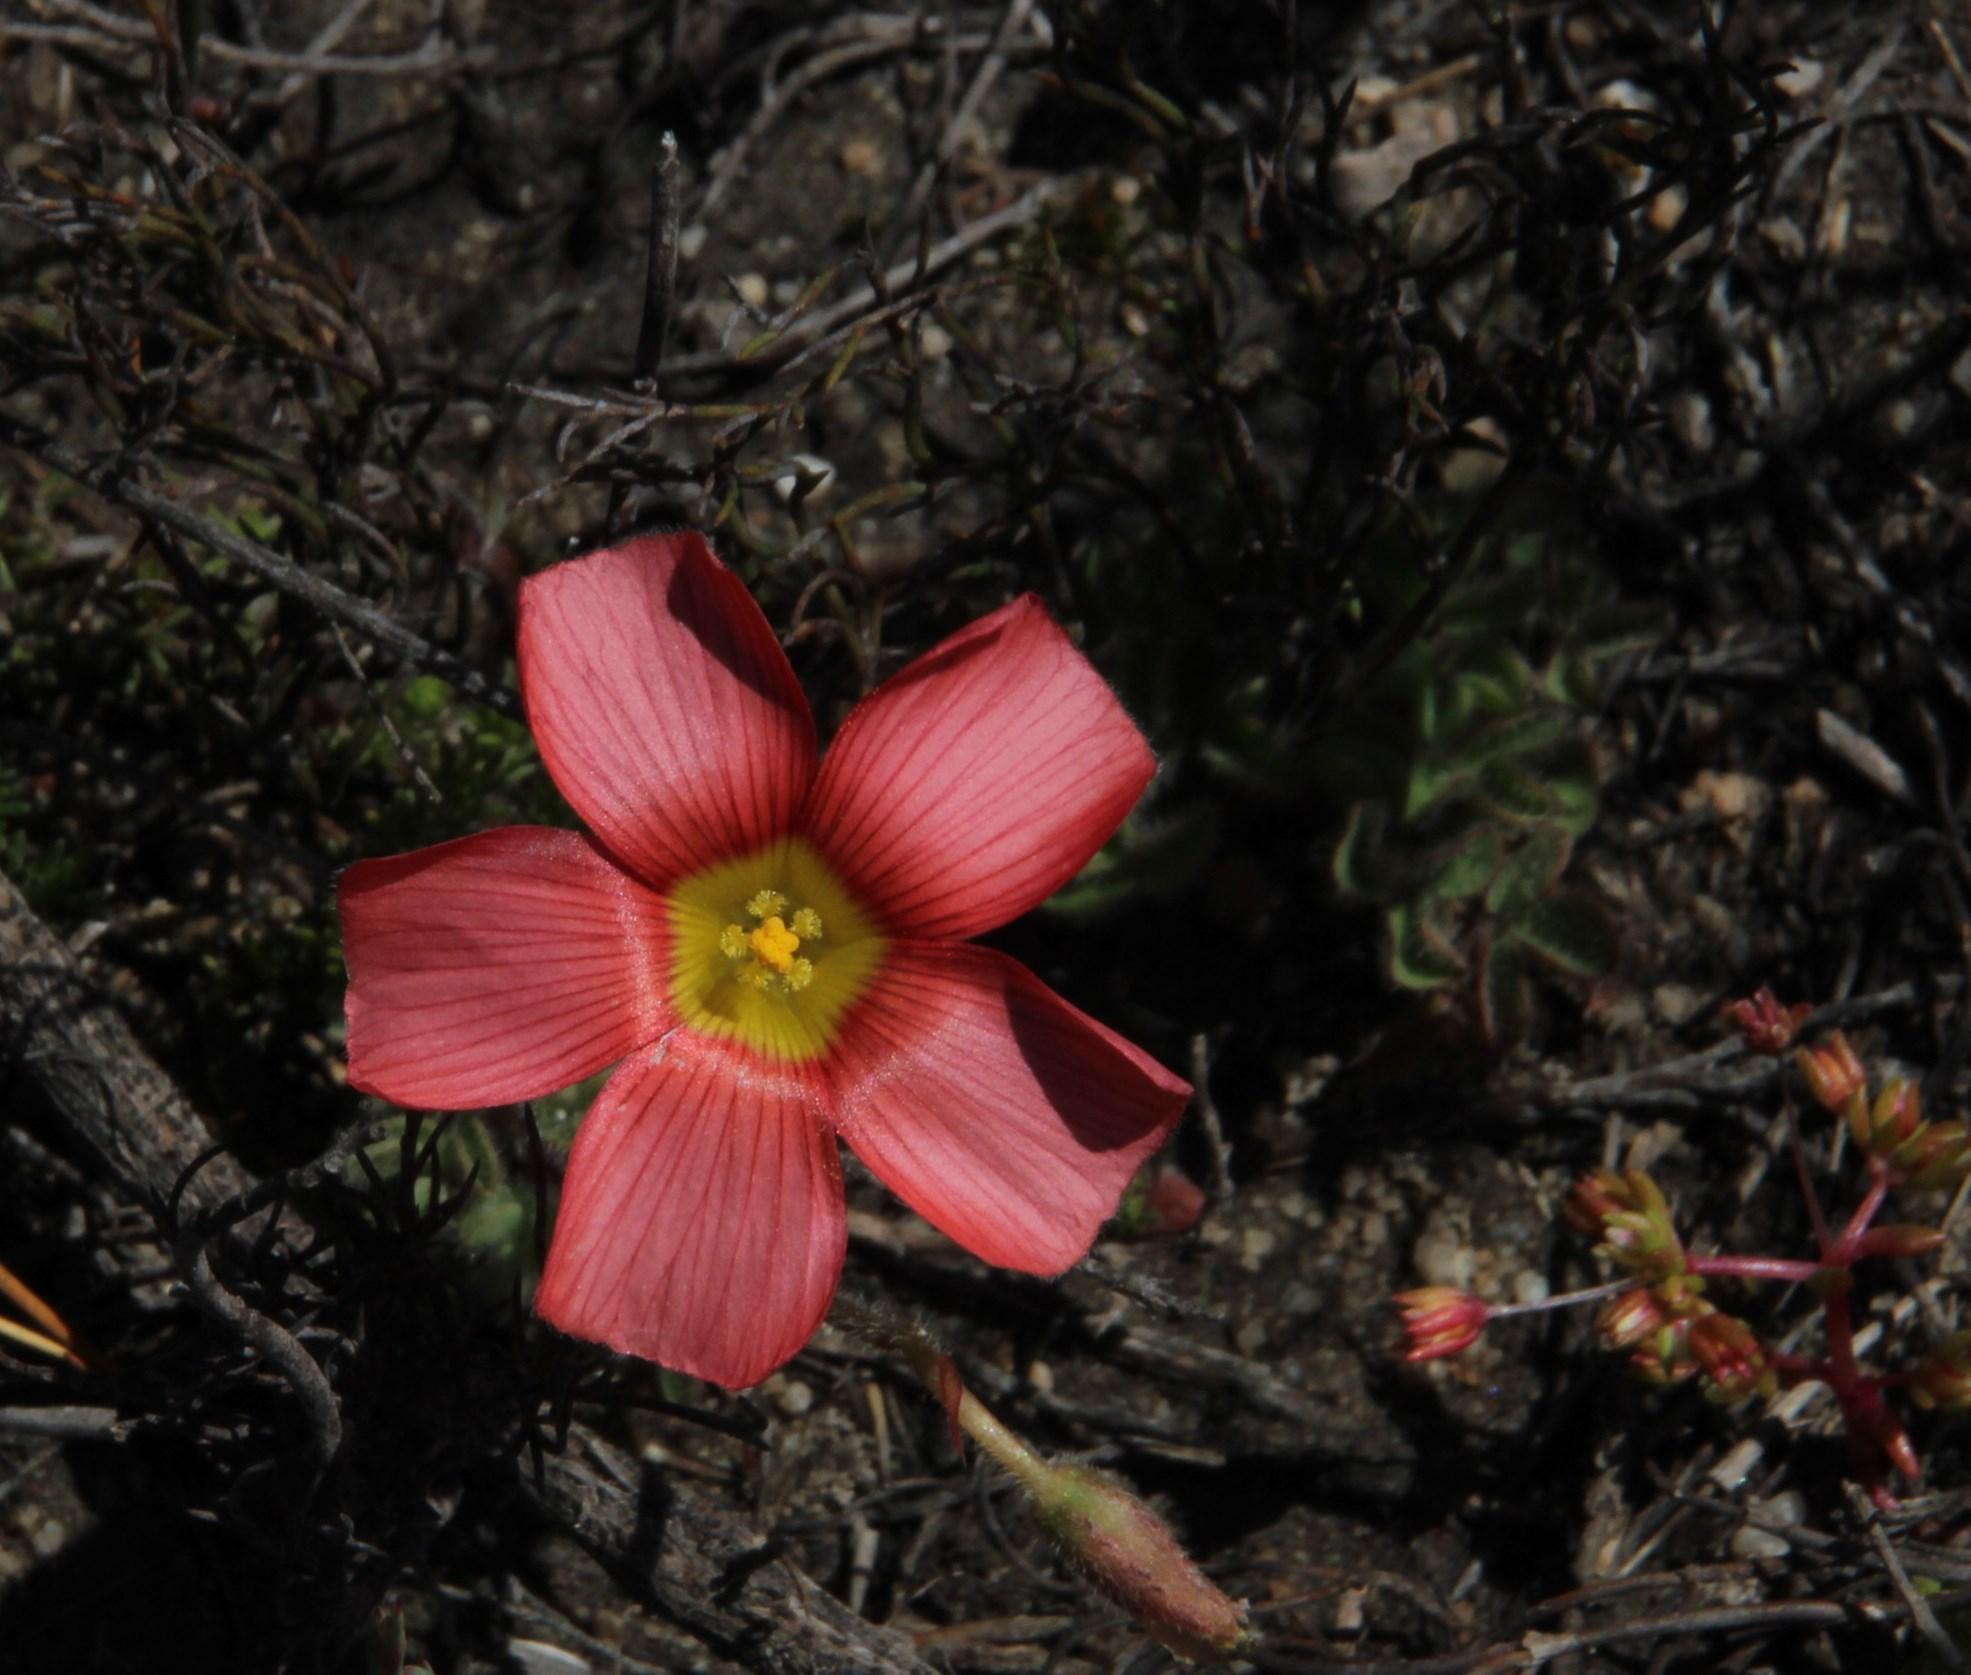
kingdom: Plantae
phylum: Tracheophyta
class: Magnoliopsida
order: Oxalidales
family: Oxalidaceae
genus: Oxalis
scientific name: Oxalis obtusa
